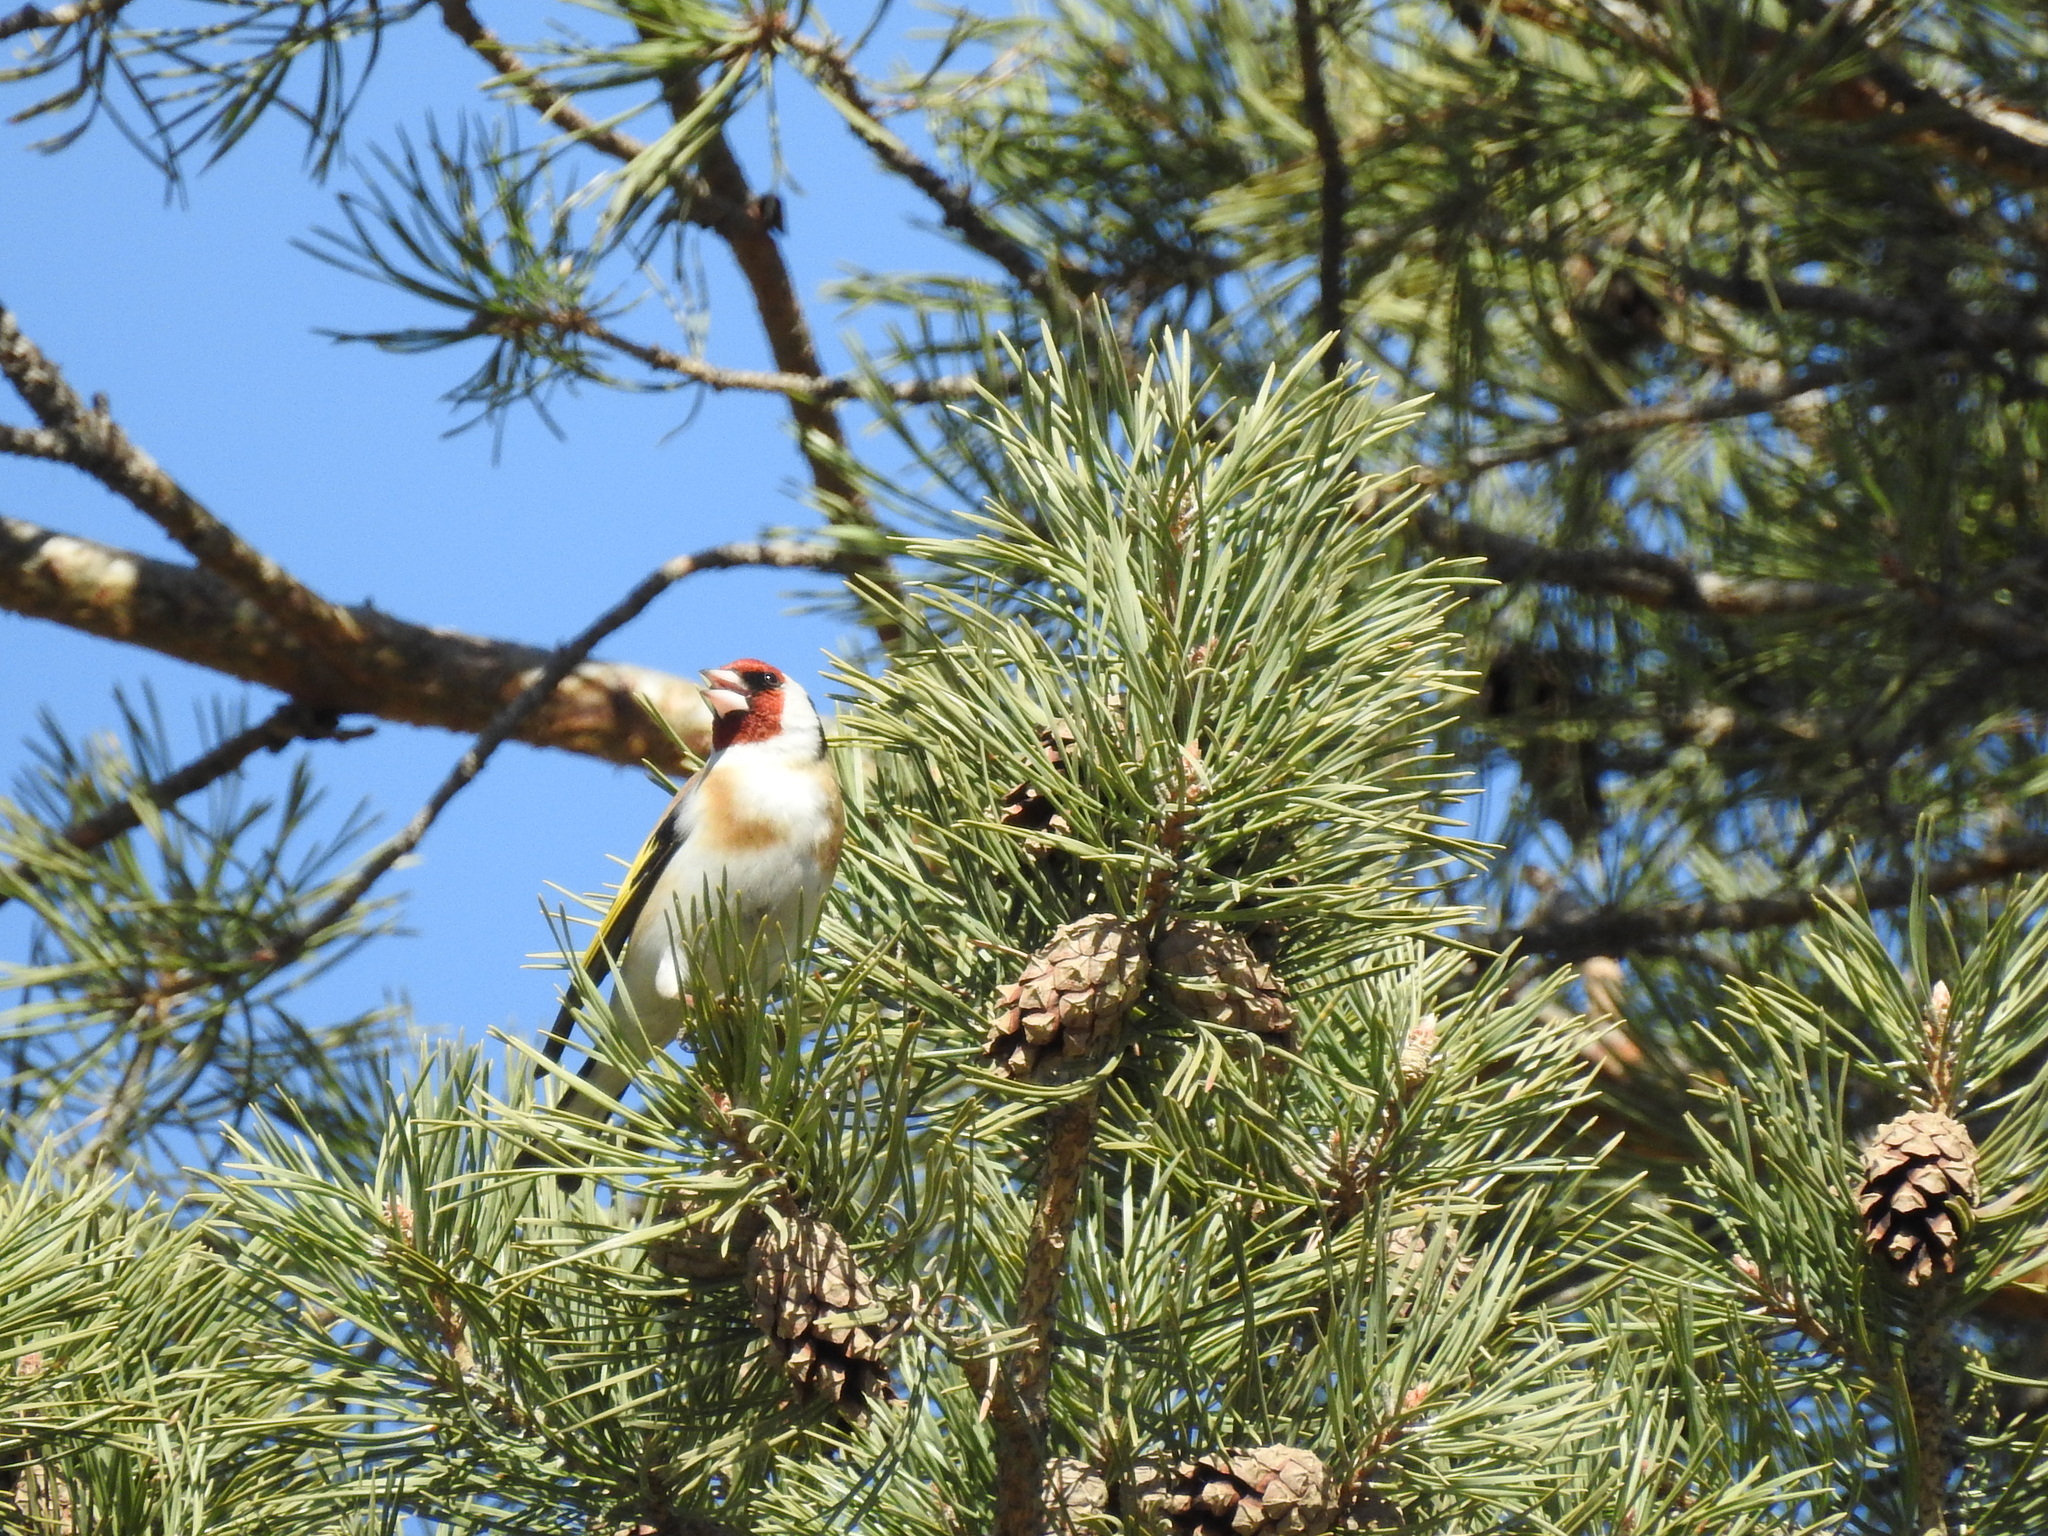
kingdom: Animalia
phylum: Chordata
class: Aves
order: Passeriformes
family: Fringillidae
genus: Carduelis
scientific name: Carduelis carduelis
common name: European goldfinch
